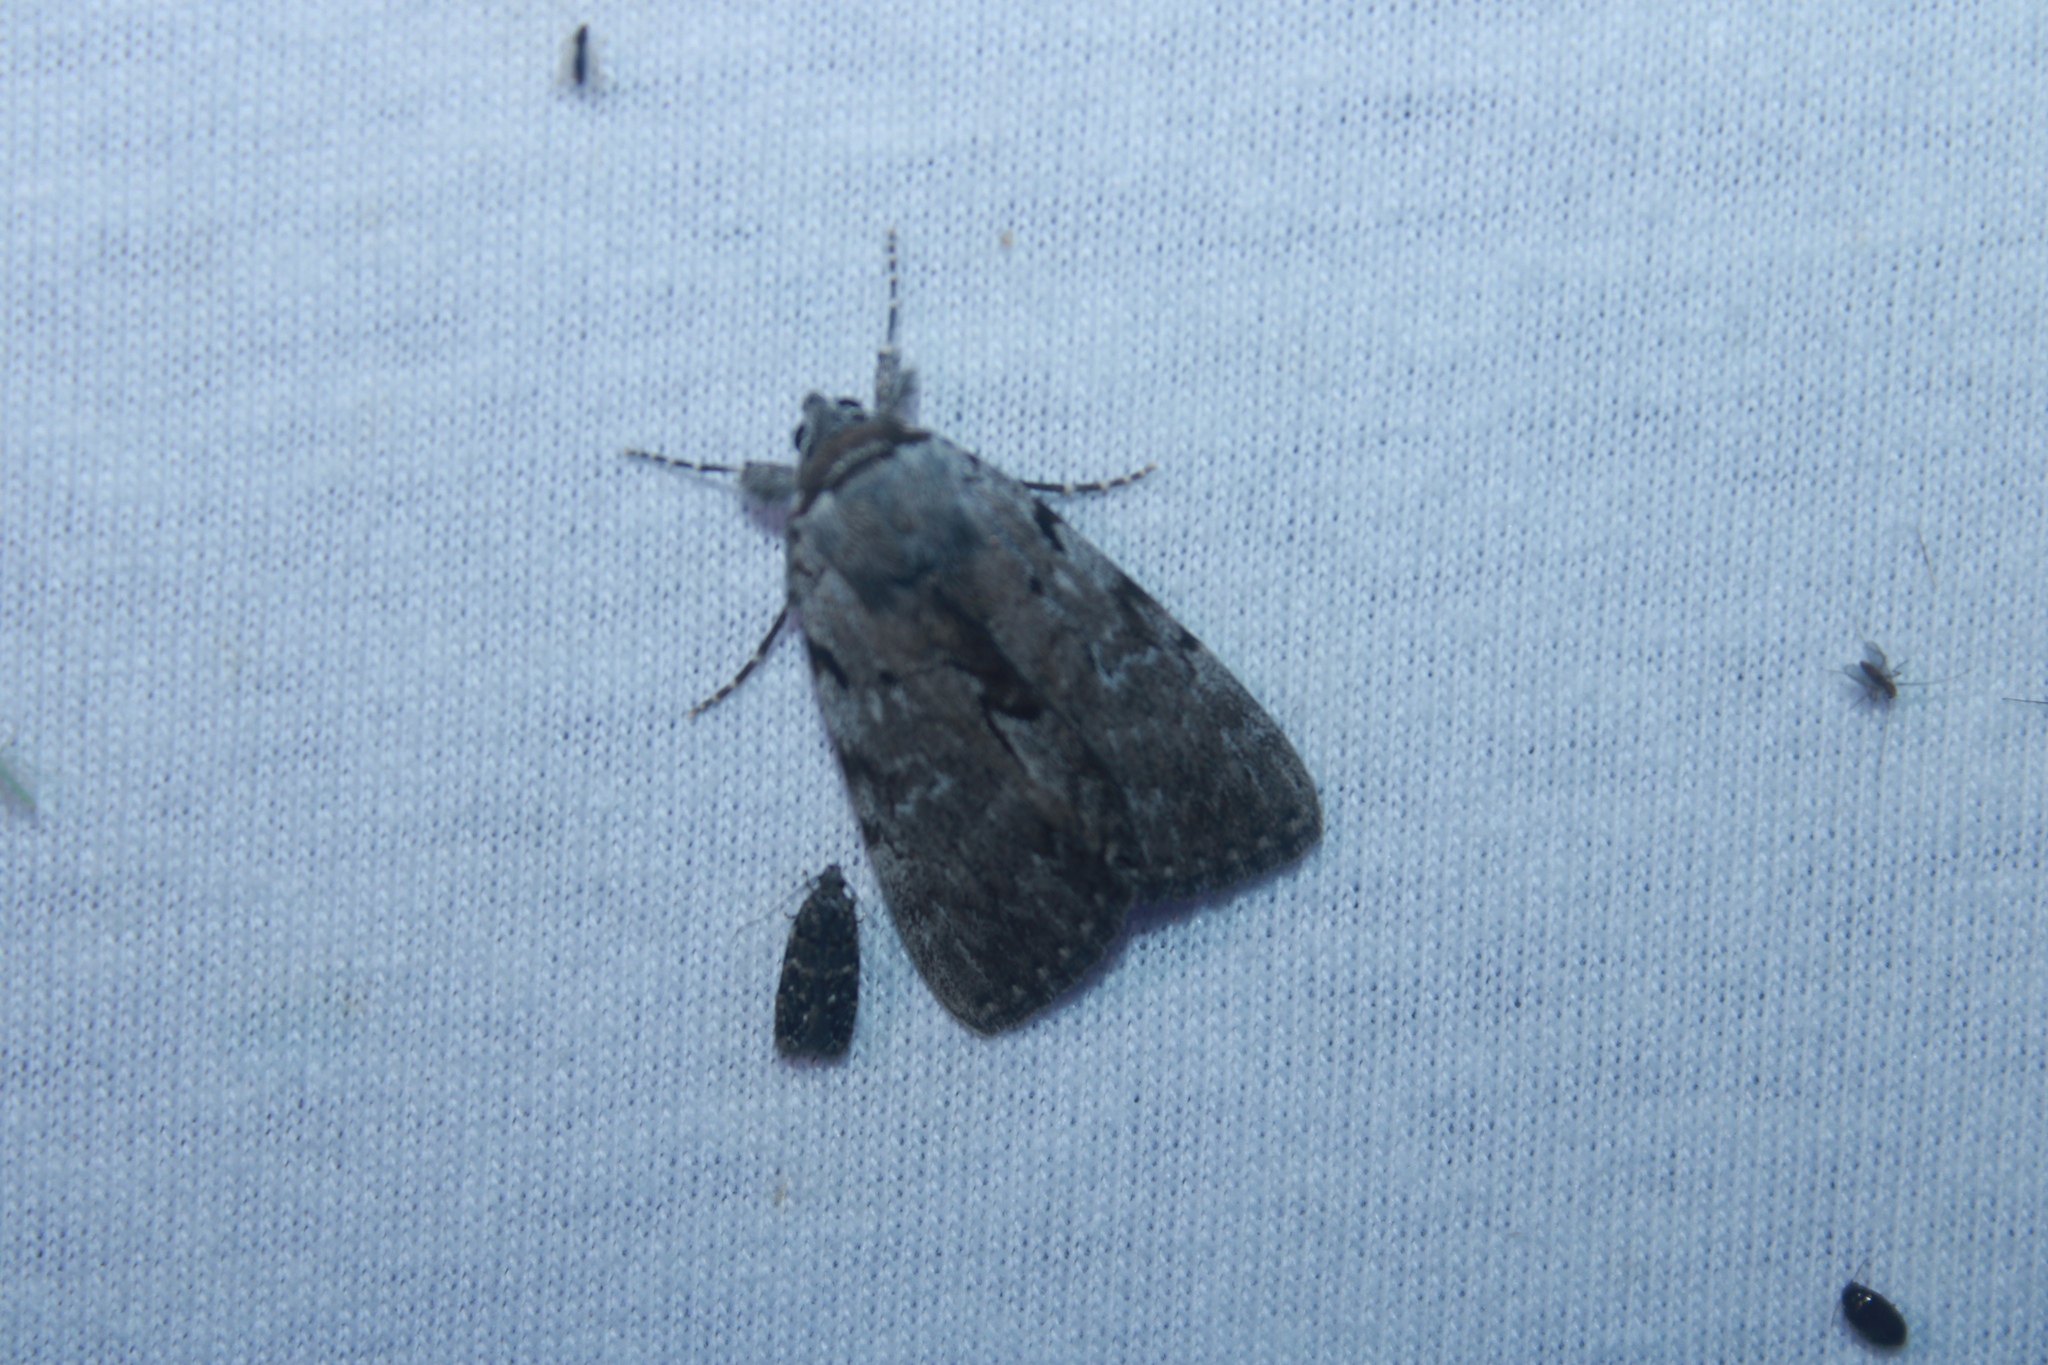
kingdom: Animalia
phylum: Arthropoda
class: Insecta
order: Lepidoptera
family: Erebidae
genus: Catocala
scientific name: Catocala sordida
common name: Sordid underwing
